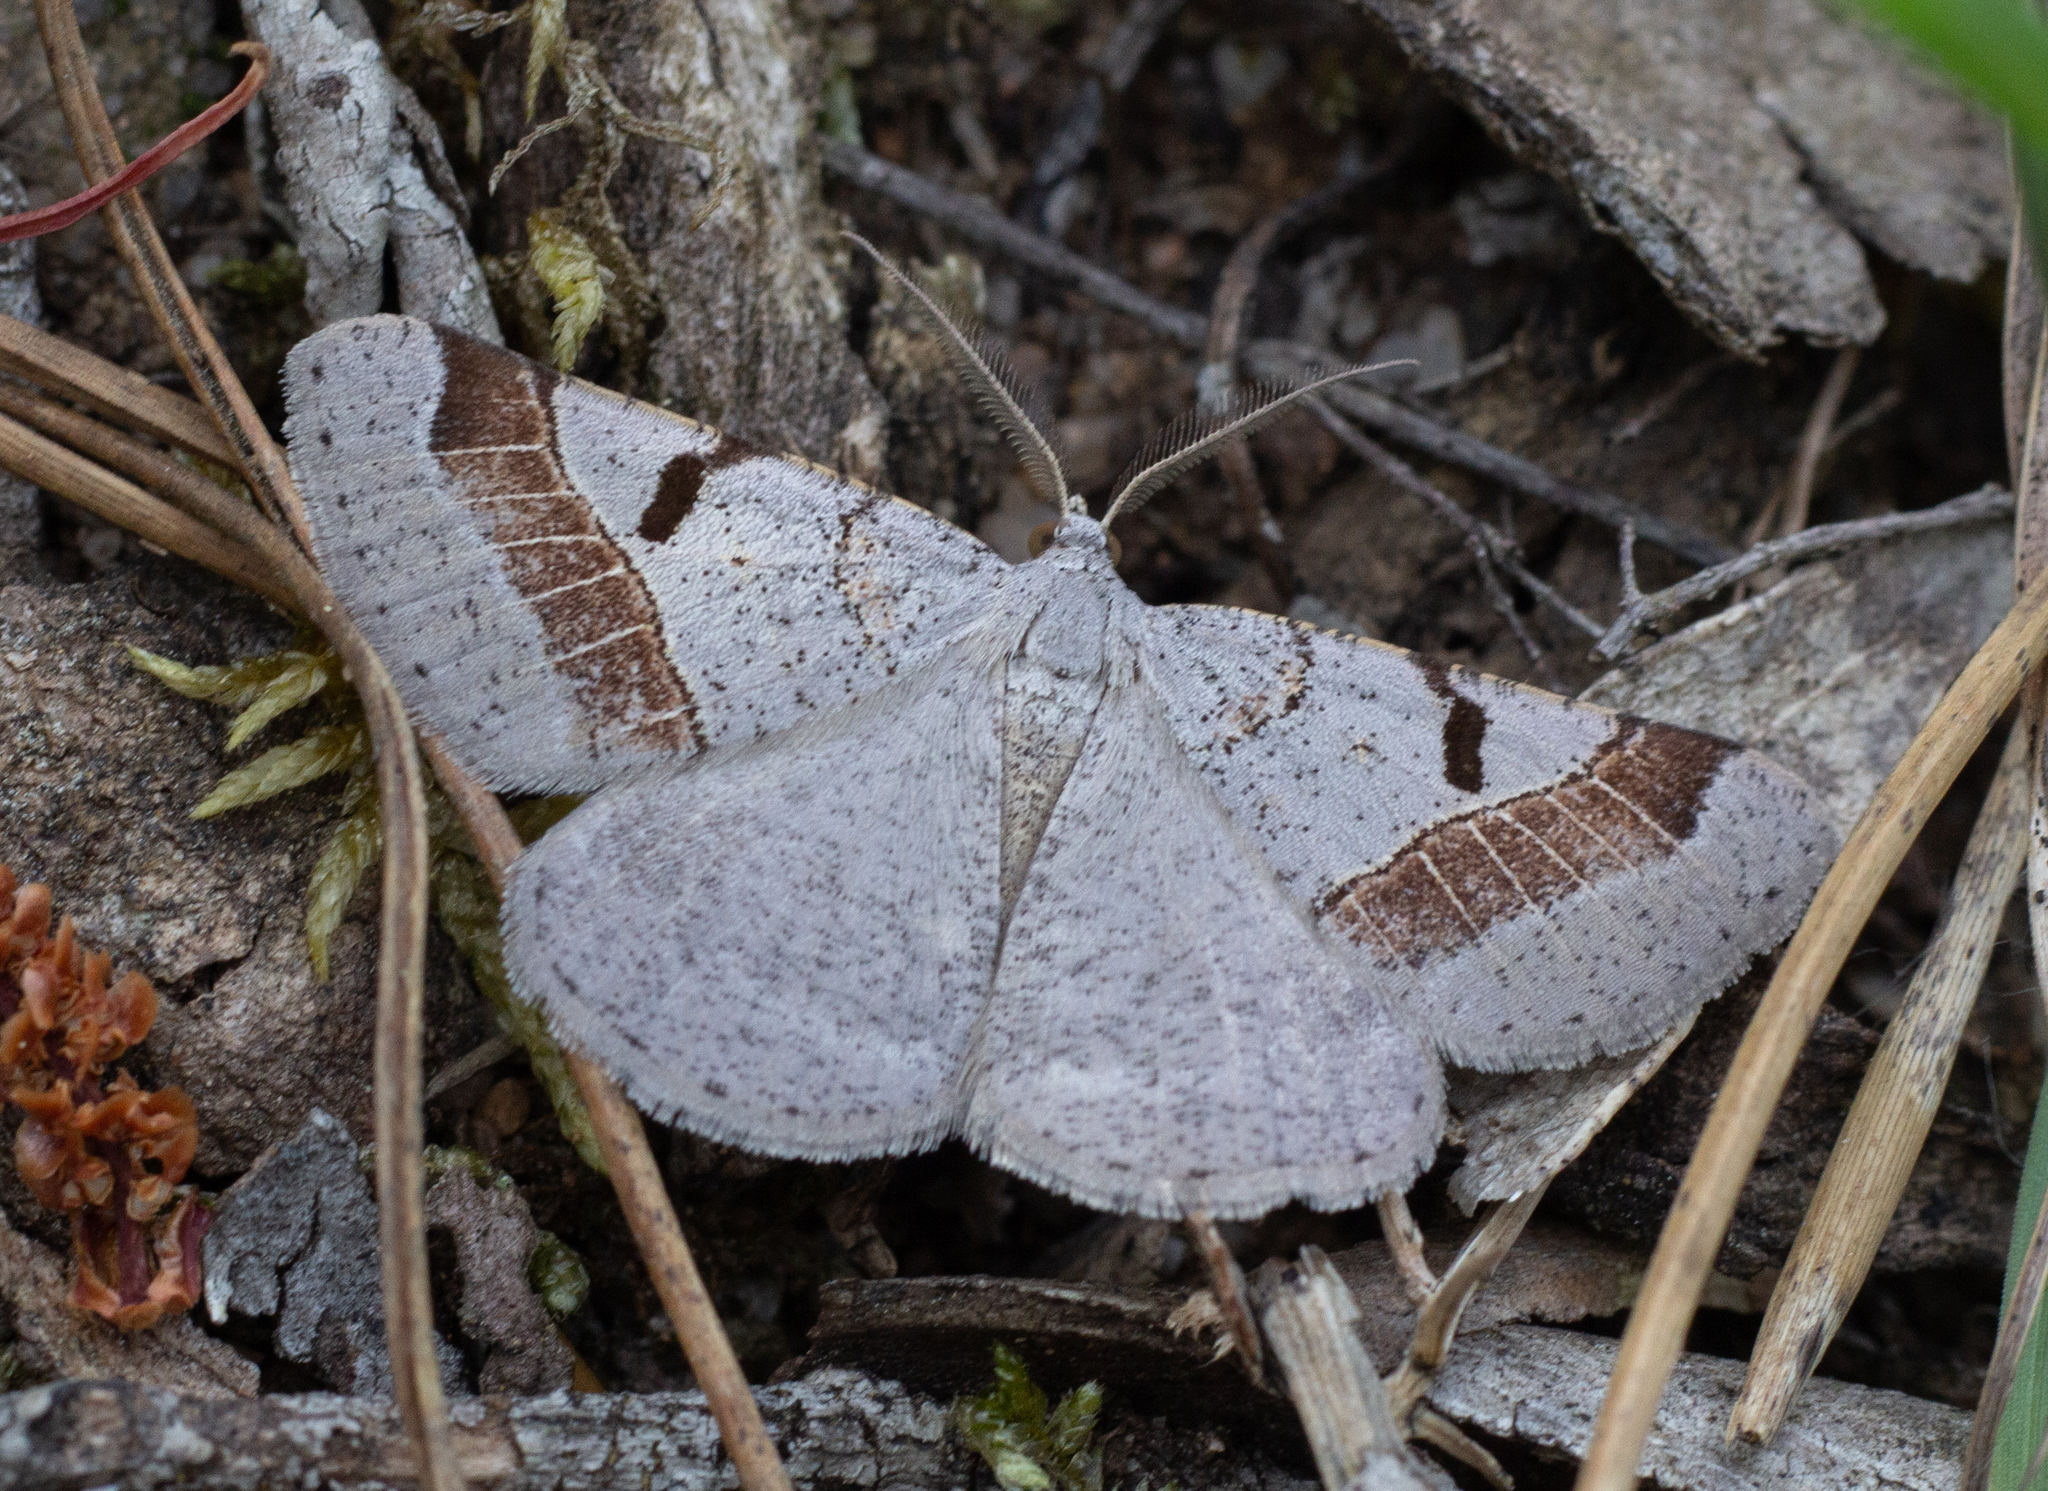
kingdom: Animalia
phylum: Arthropoda
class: Insecta
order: Lepidoptera
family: Geometridae
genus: Itame
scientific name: Itame vincularia
